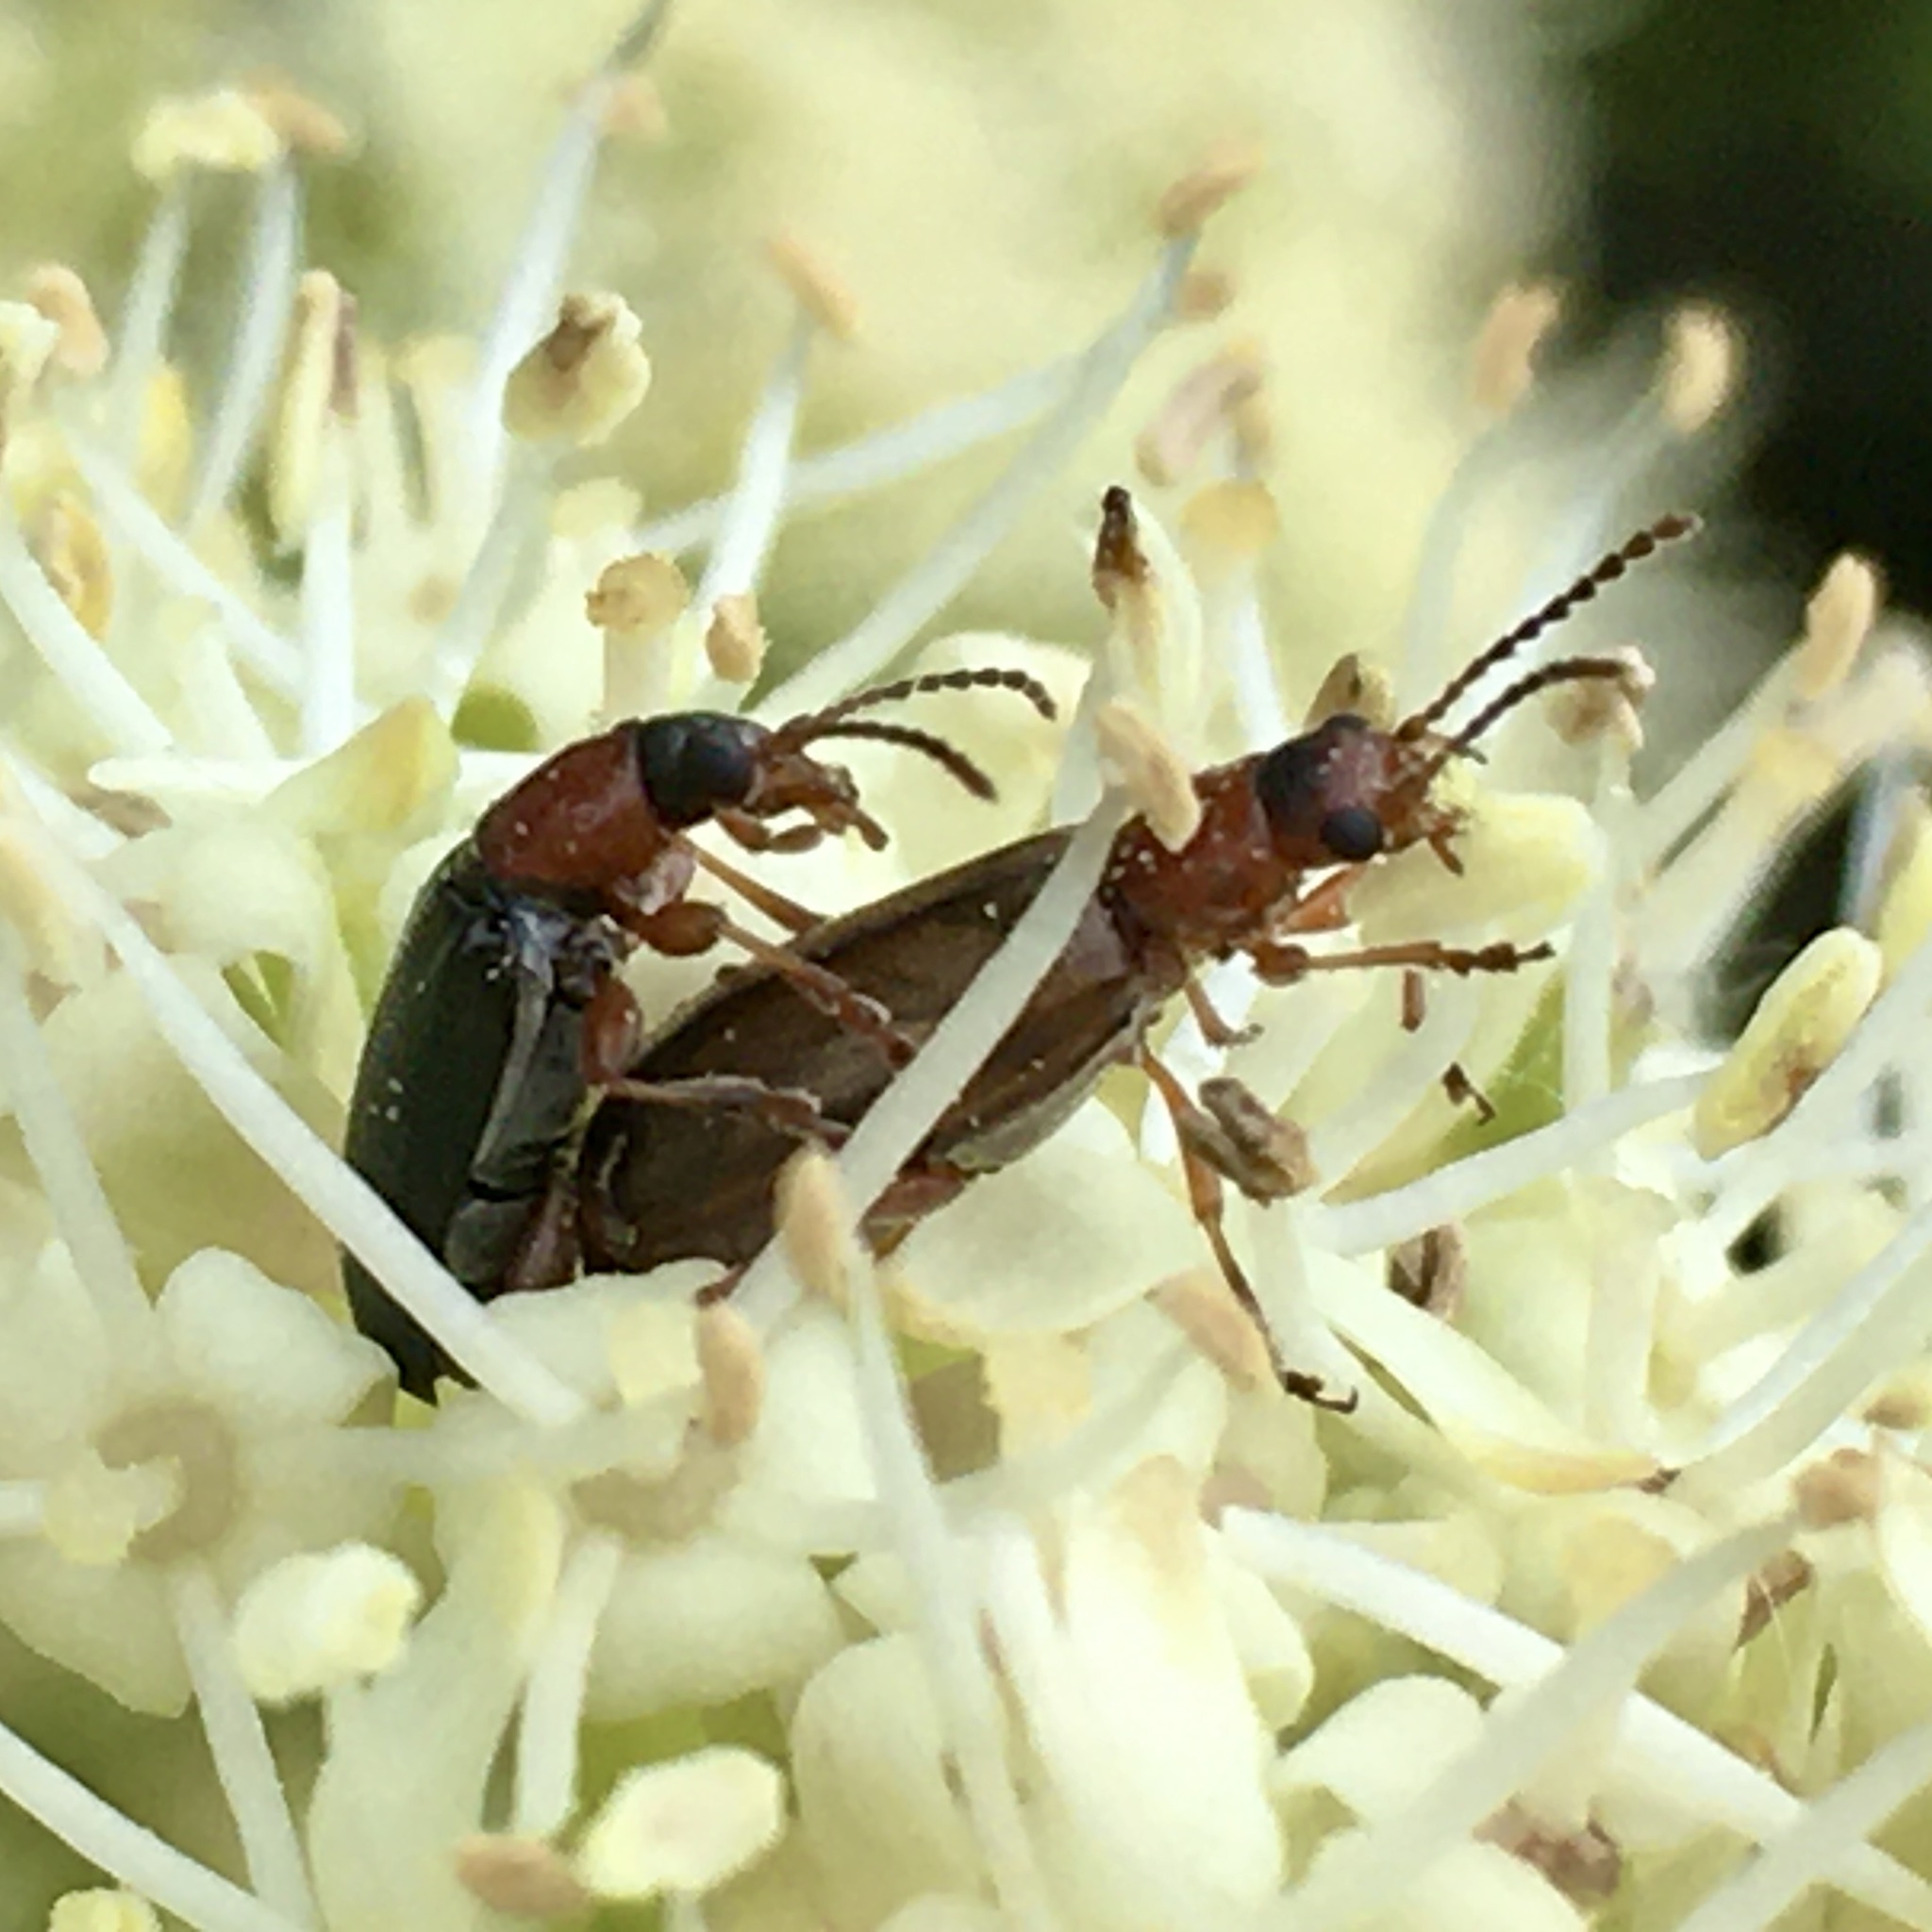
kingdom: Animalia
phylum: Arthropoda
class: Insecta
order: Coleoptera
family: Orsodacnidae
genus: Orsodacne
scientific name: Orsodacne atra
